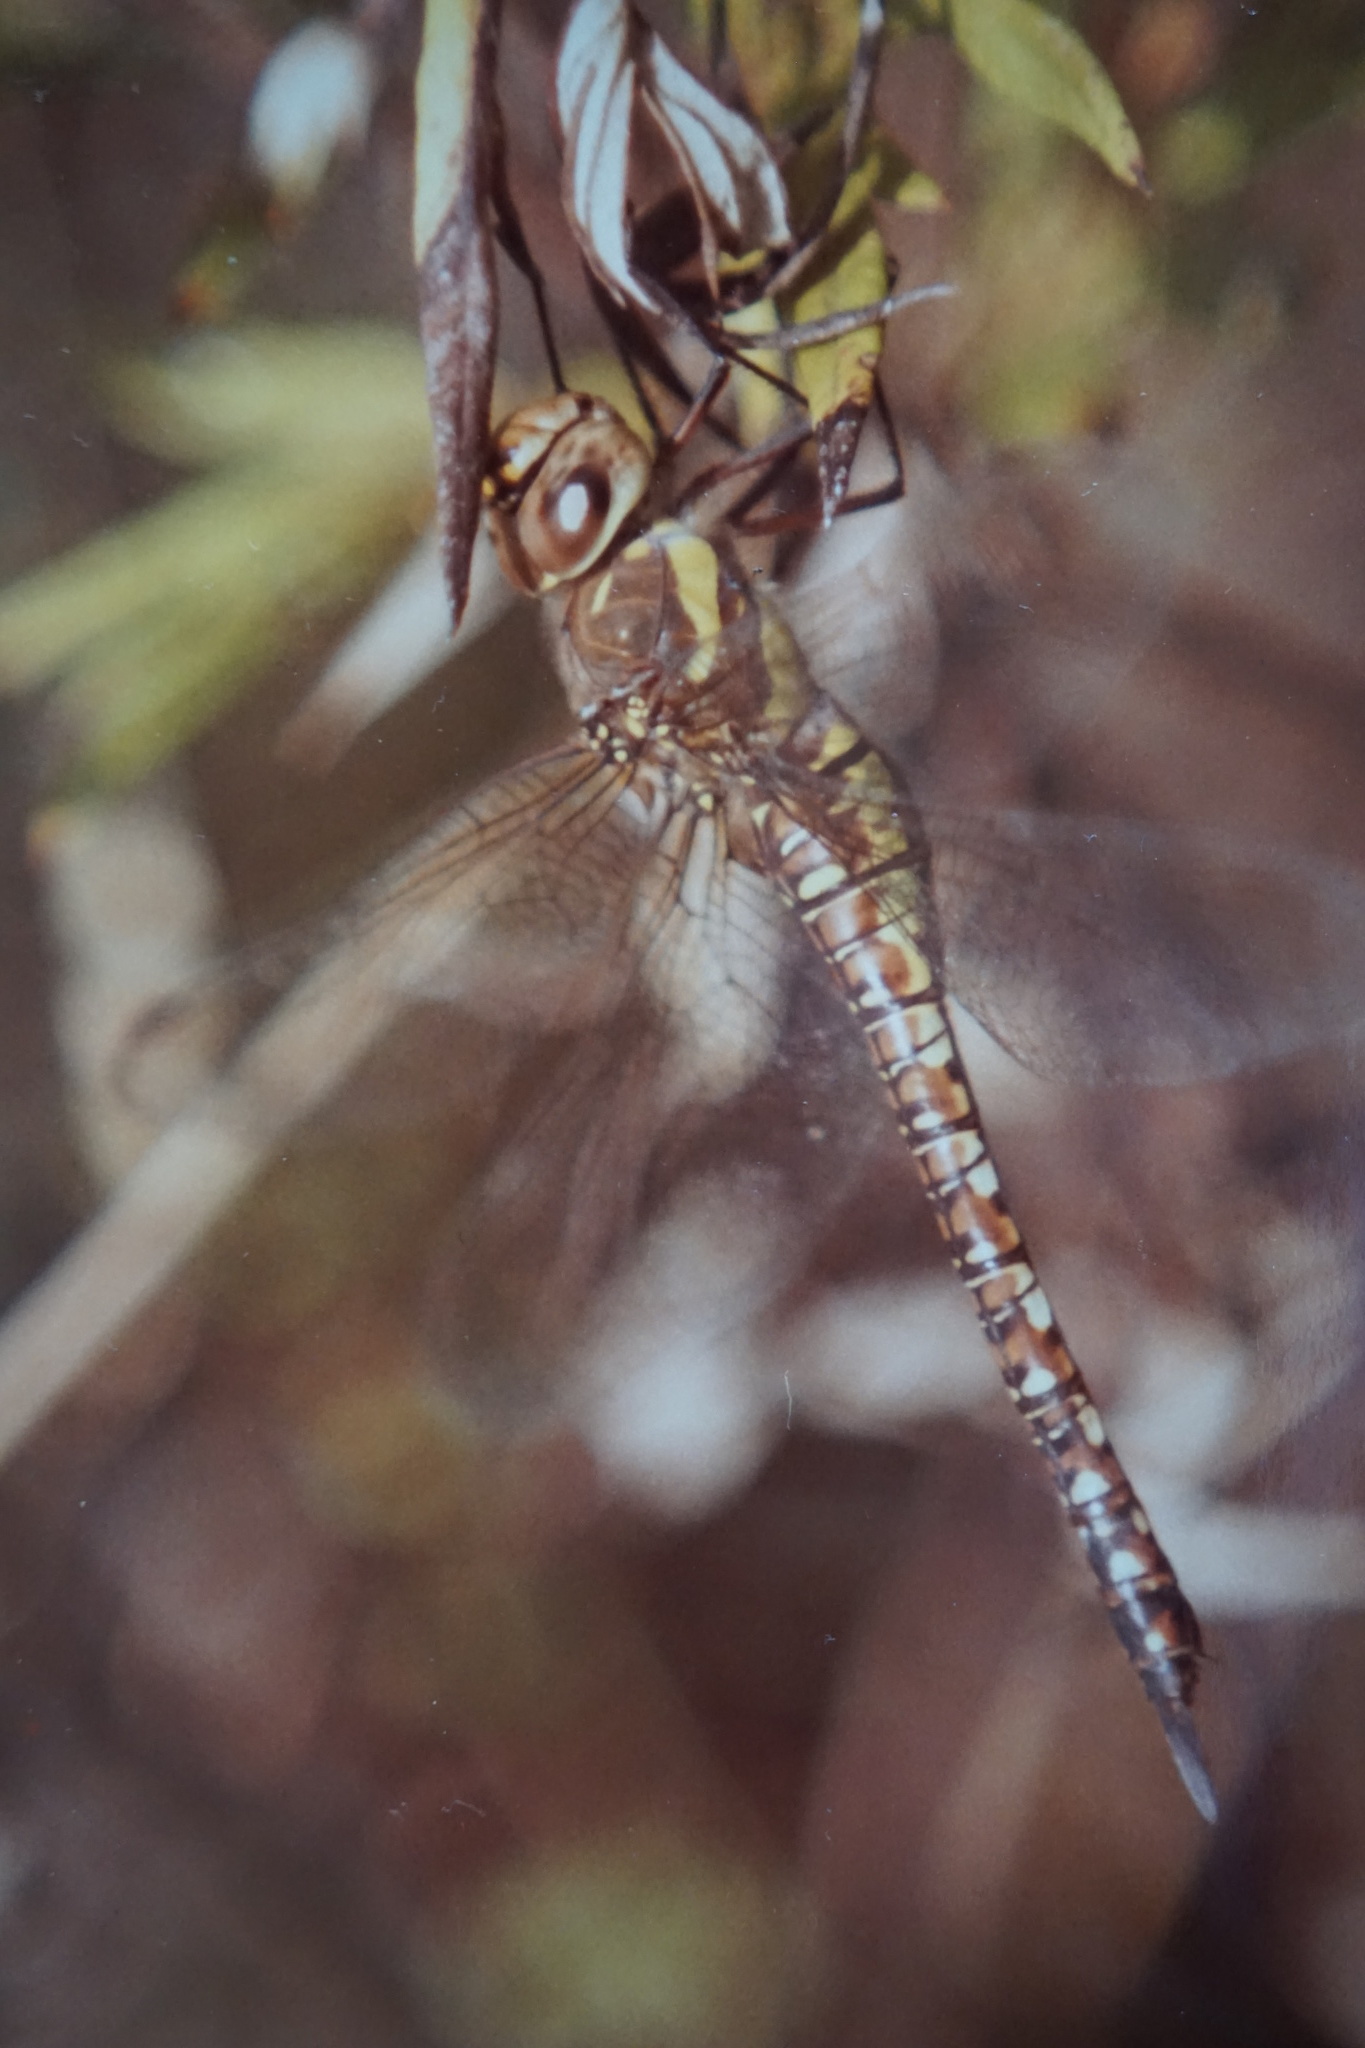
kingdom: Animalia
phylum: Arthropoda
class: Insecta
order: Odonata
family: Aeshnidae
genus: Aeshna
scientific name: Aeshna mixta
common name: Migrant hawker
